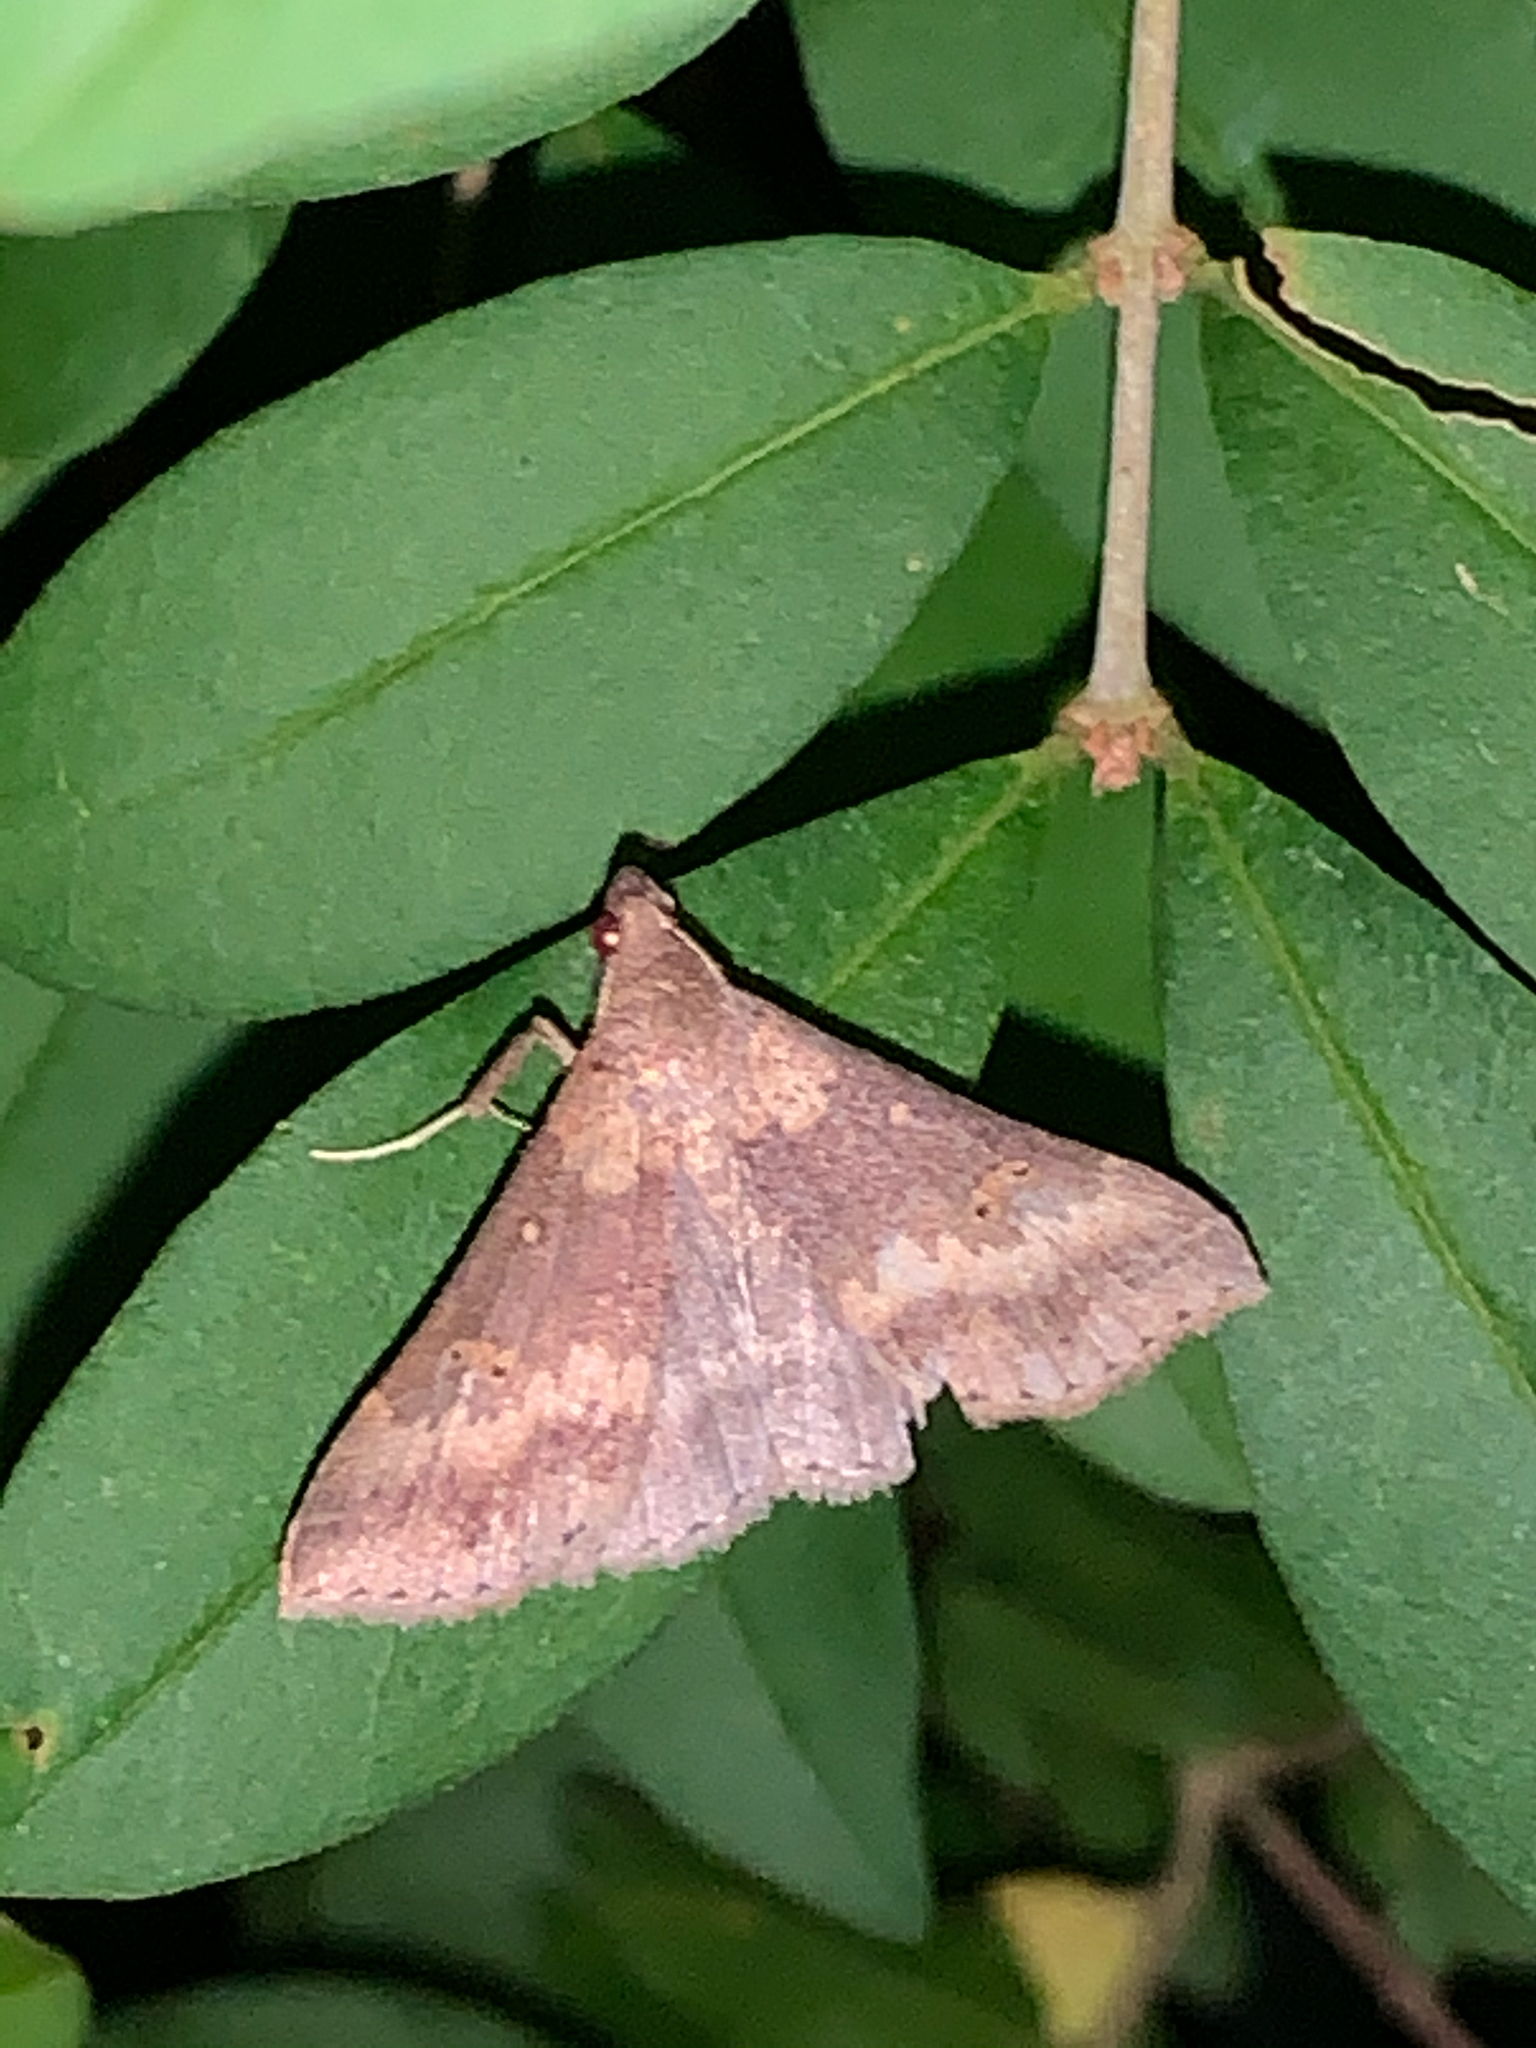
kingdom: Animalia
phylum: Arthropoda
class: Insecta
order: Lepidoptera
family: Erebidae
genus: Renia
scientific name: Renia discoloralis
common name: Discolored renia moth
